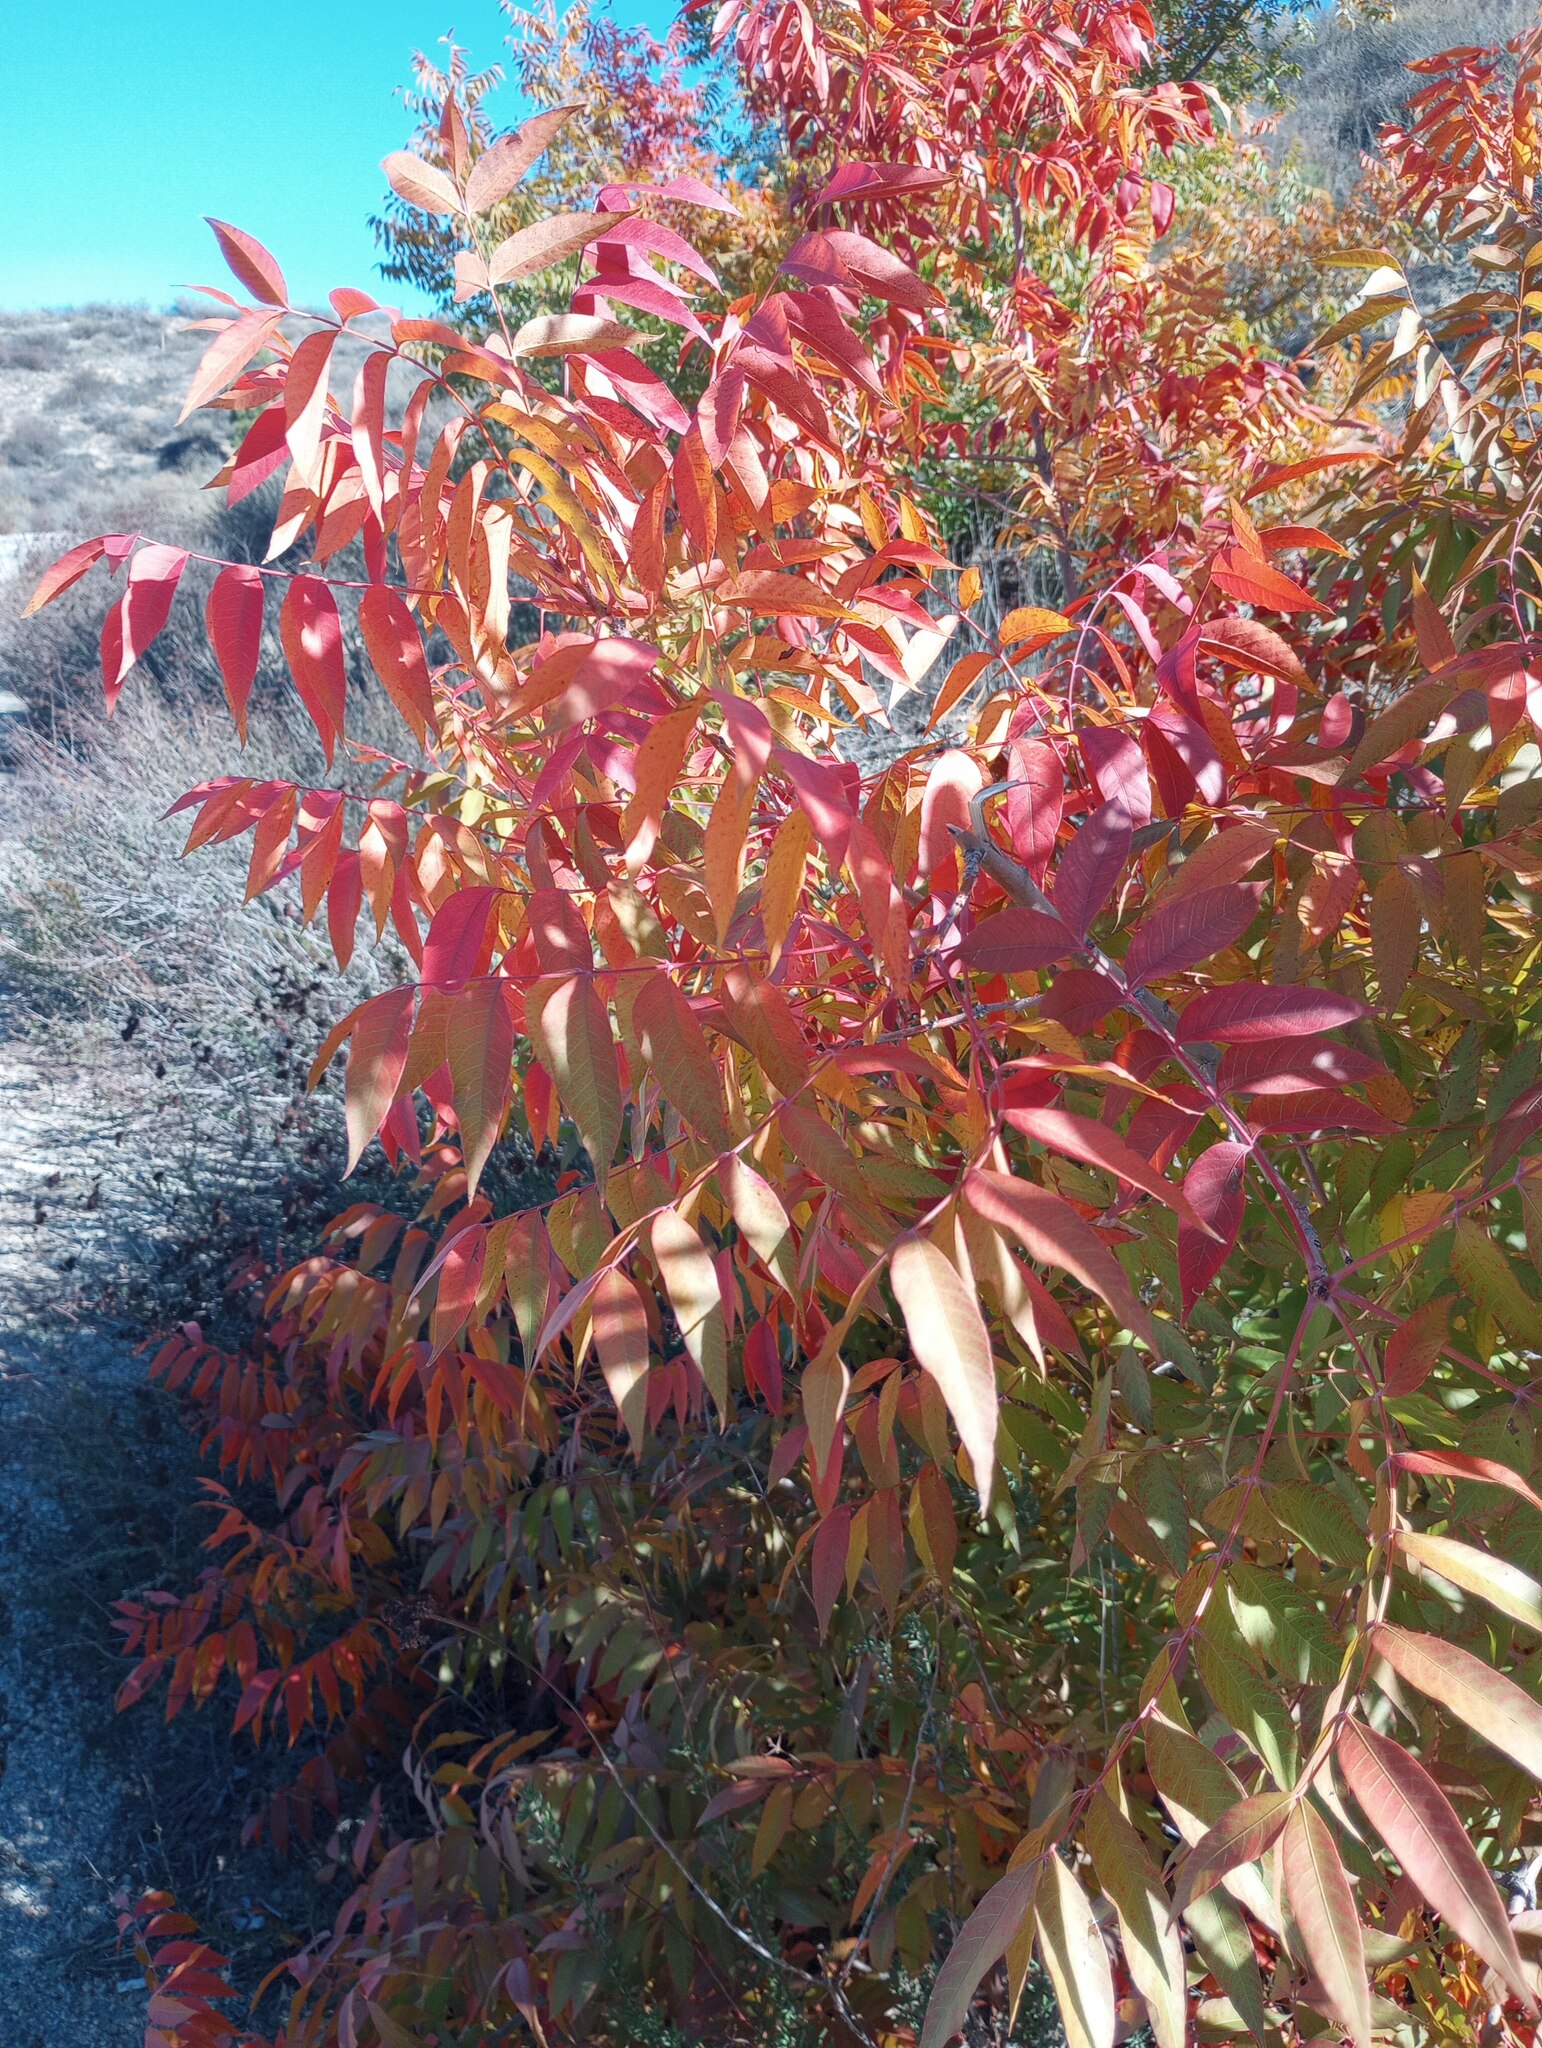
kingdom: Plantae
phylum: Tracheophyta
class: Magnoliopsida
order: Sapindales
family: Anacardiaceae
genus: Pistacia
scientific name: Pistacia chinensis
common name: Chinese pistache
